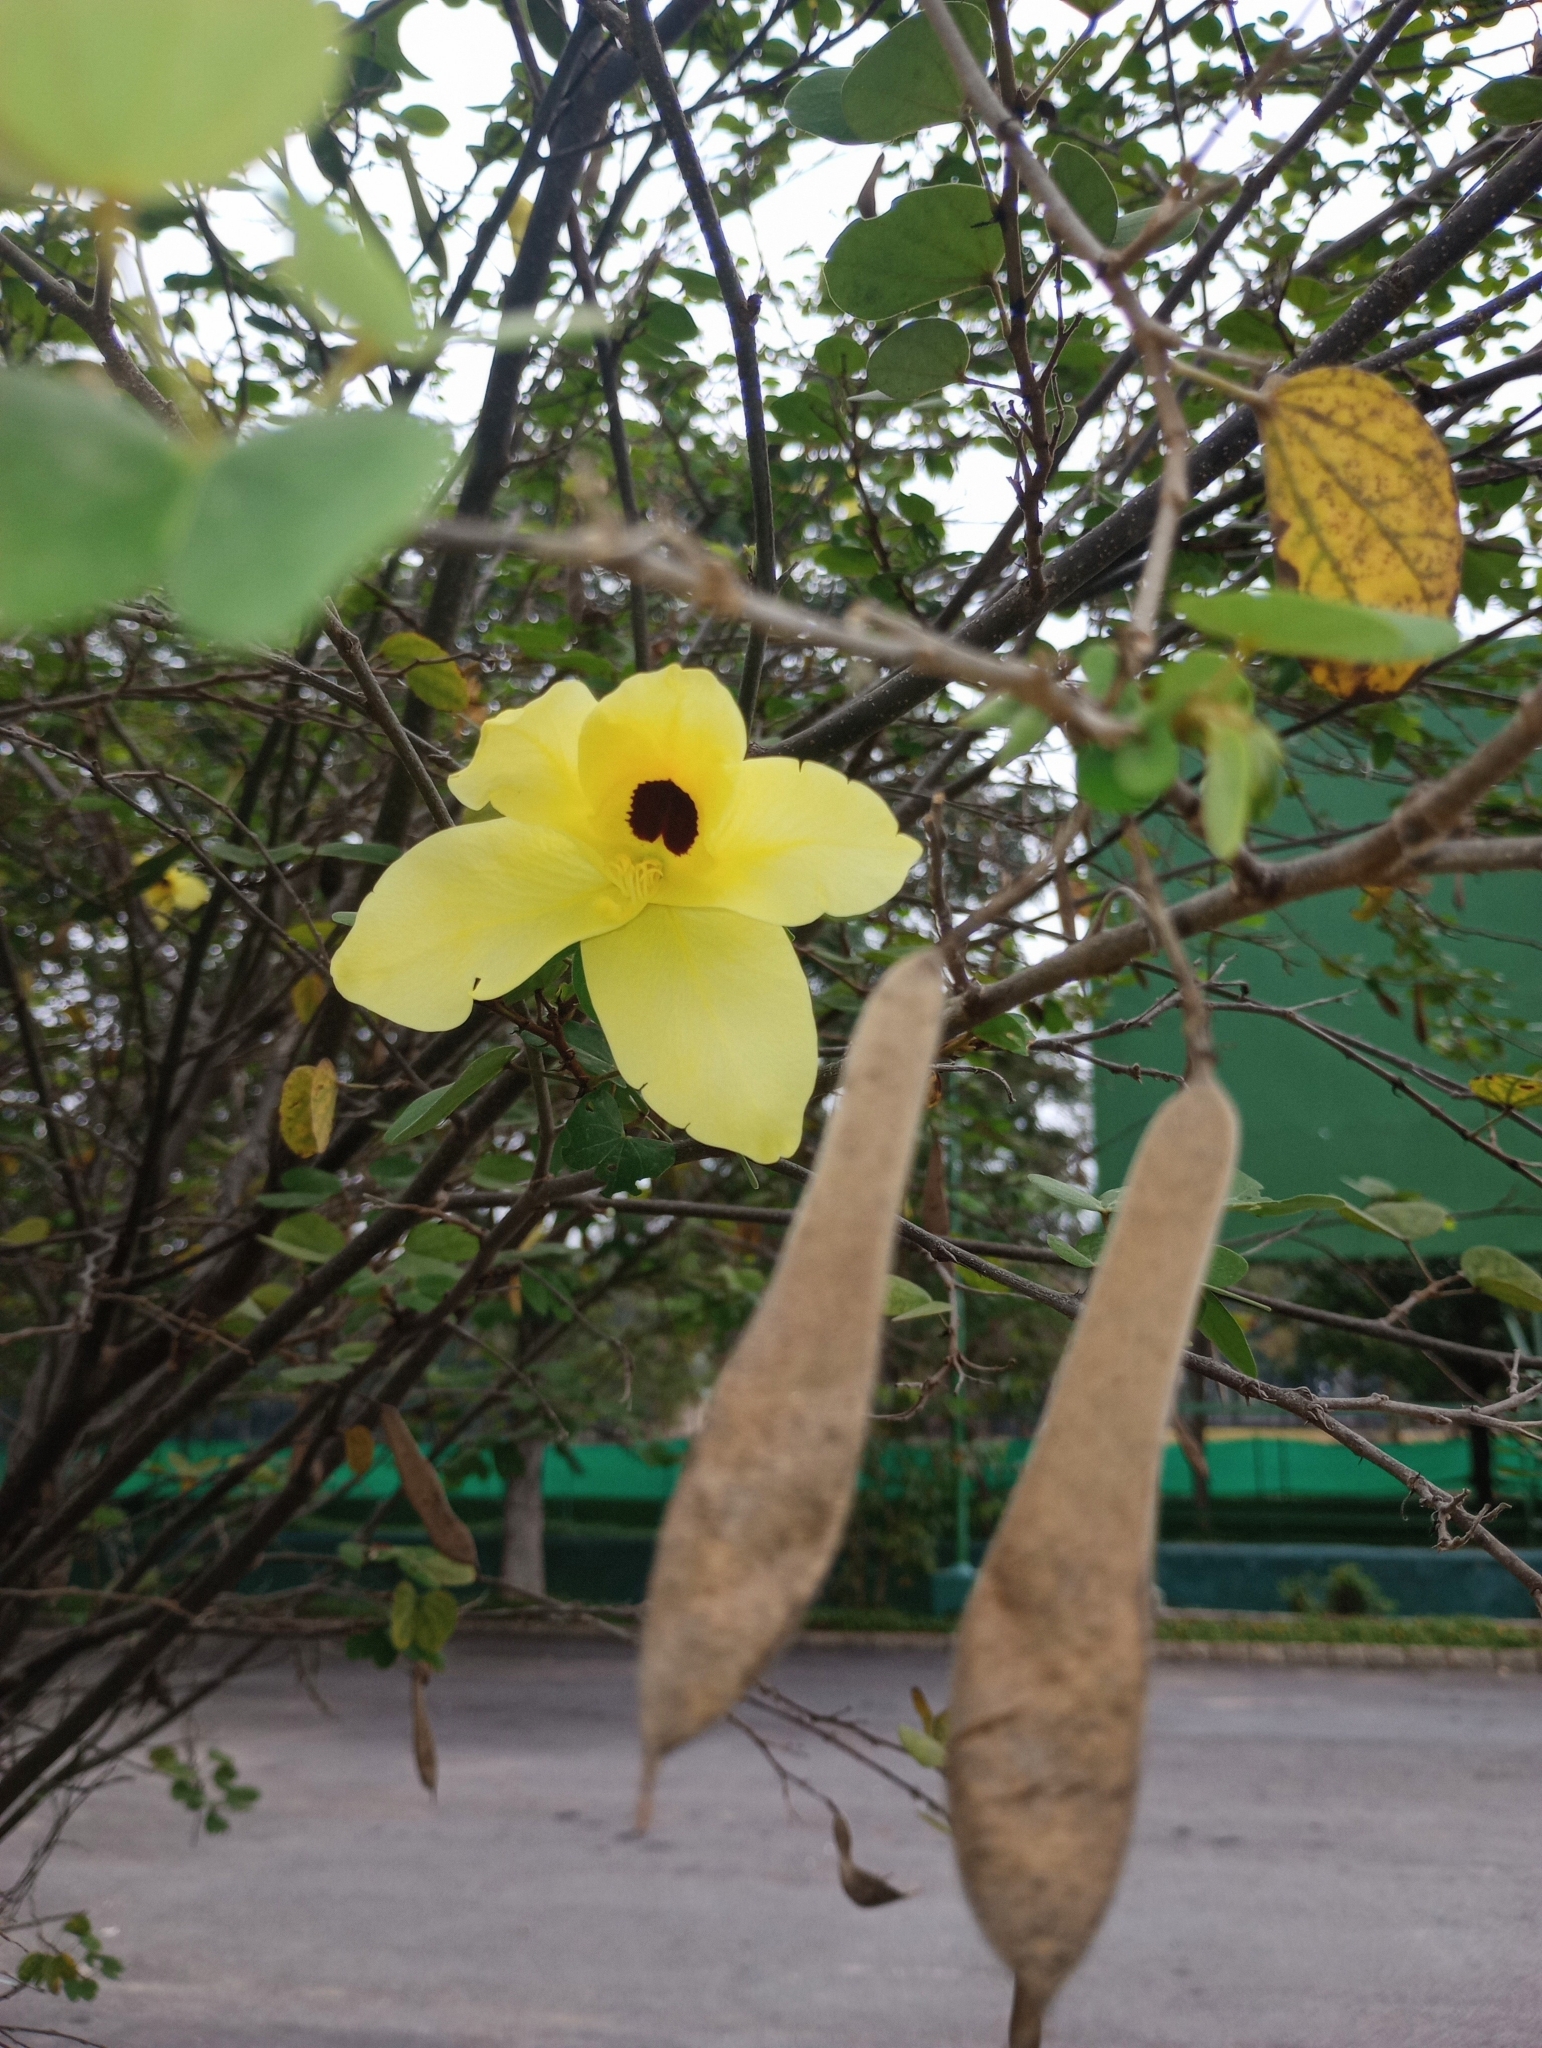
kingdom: Plantae
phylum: Tracheophyta
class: Magnoliopsida
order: Fabales
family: Fabaceae
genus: Bauhinia
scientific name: Bauhinia tomentosa
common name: Bell bauhinia
